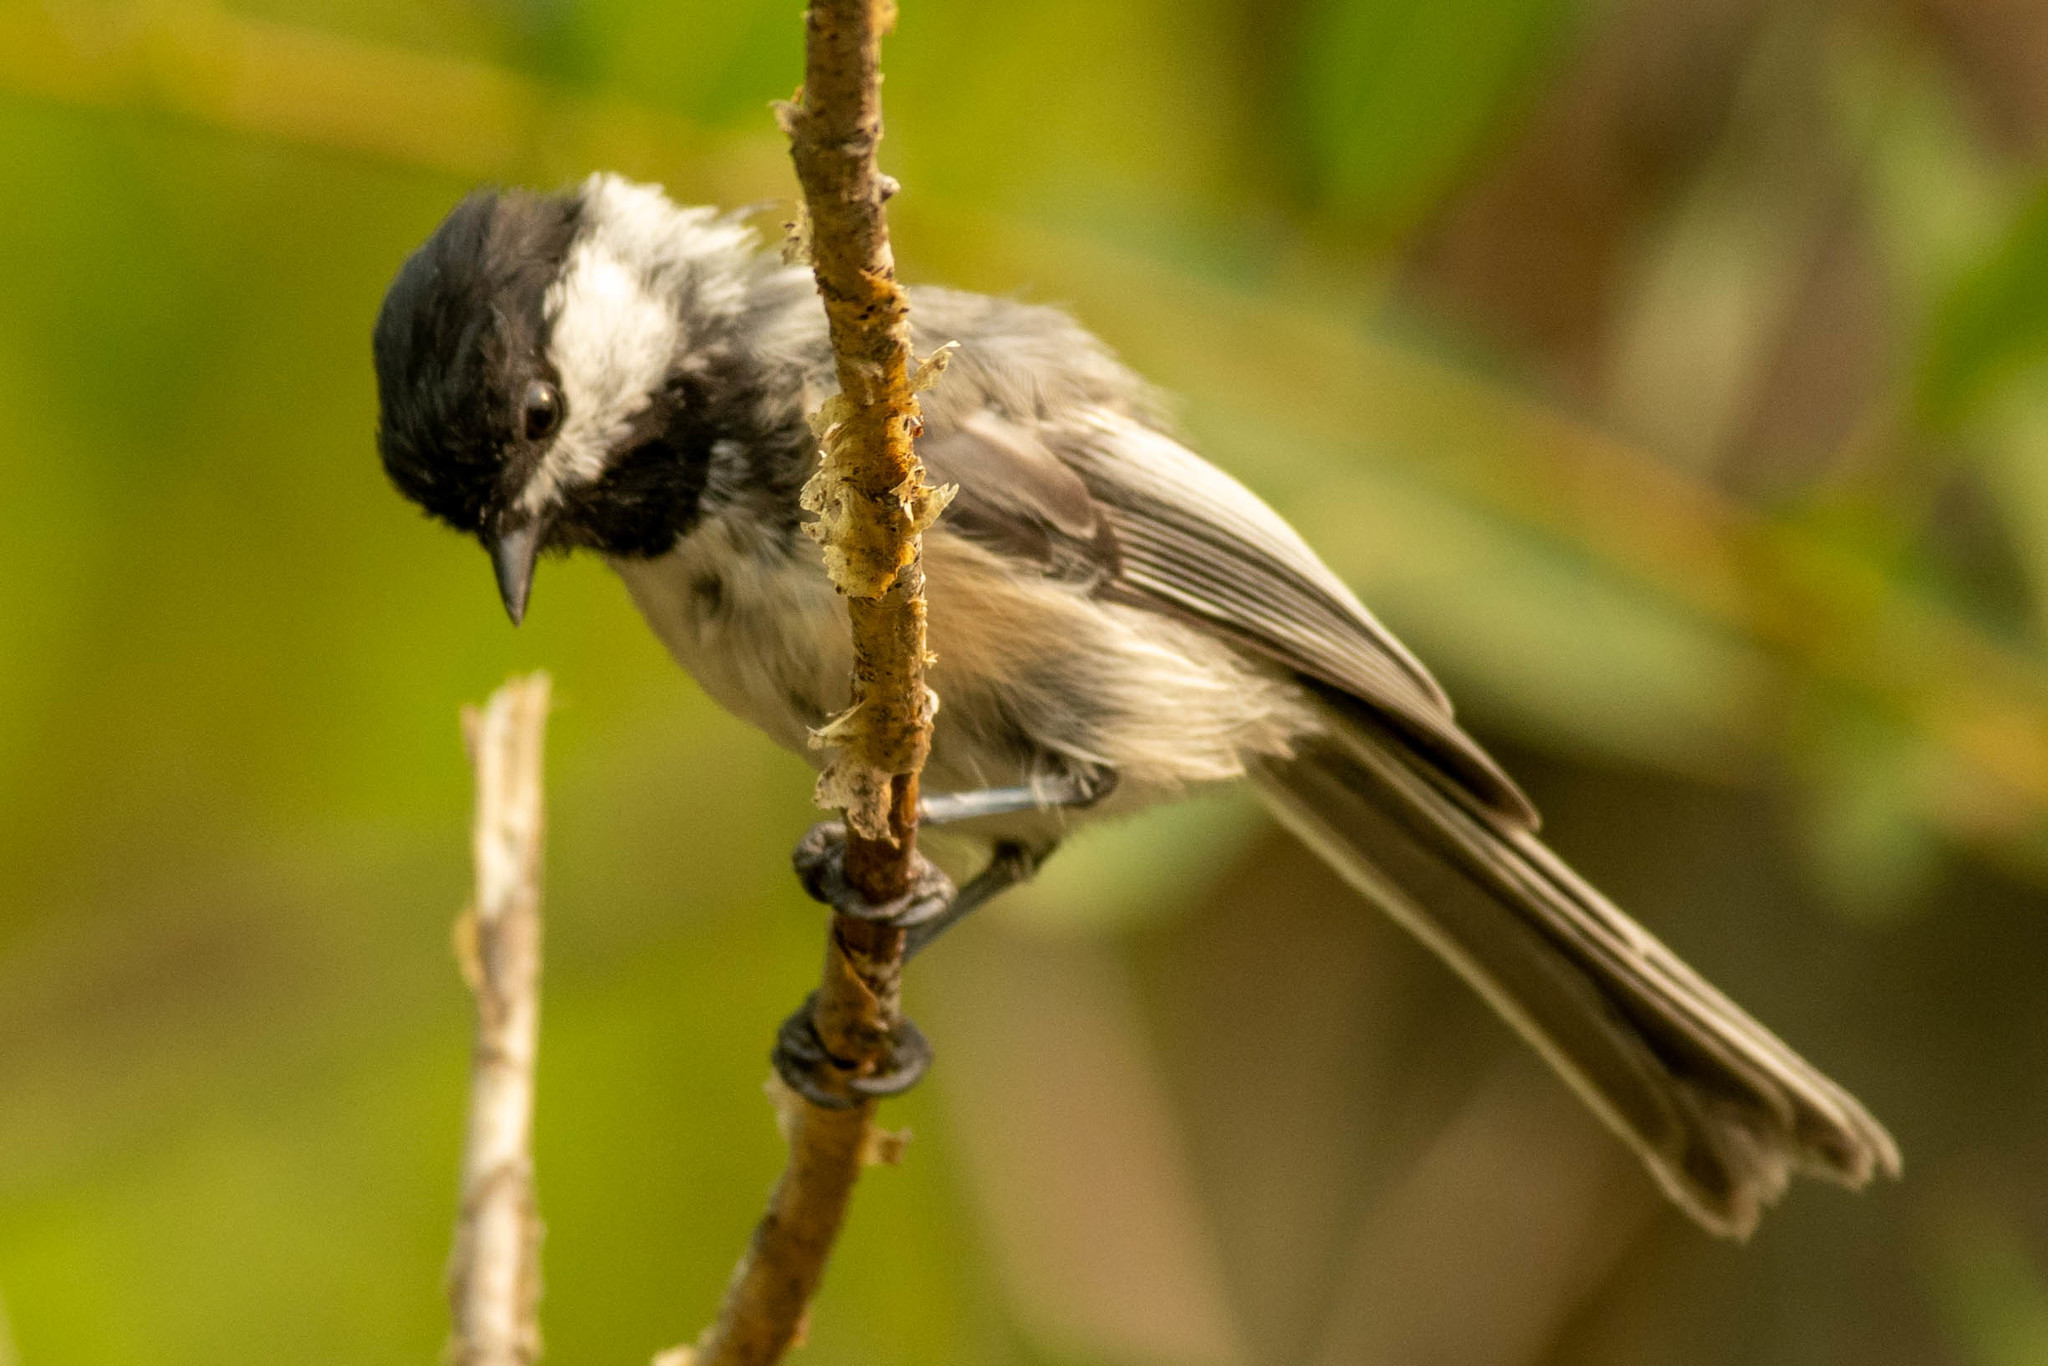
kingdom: Animalia
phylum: Chordata
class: Aves
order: Passeriformes
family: Paridae
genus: Poecile
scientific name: Poecile atricapillus
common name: Black-capped chickadee
